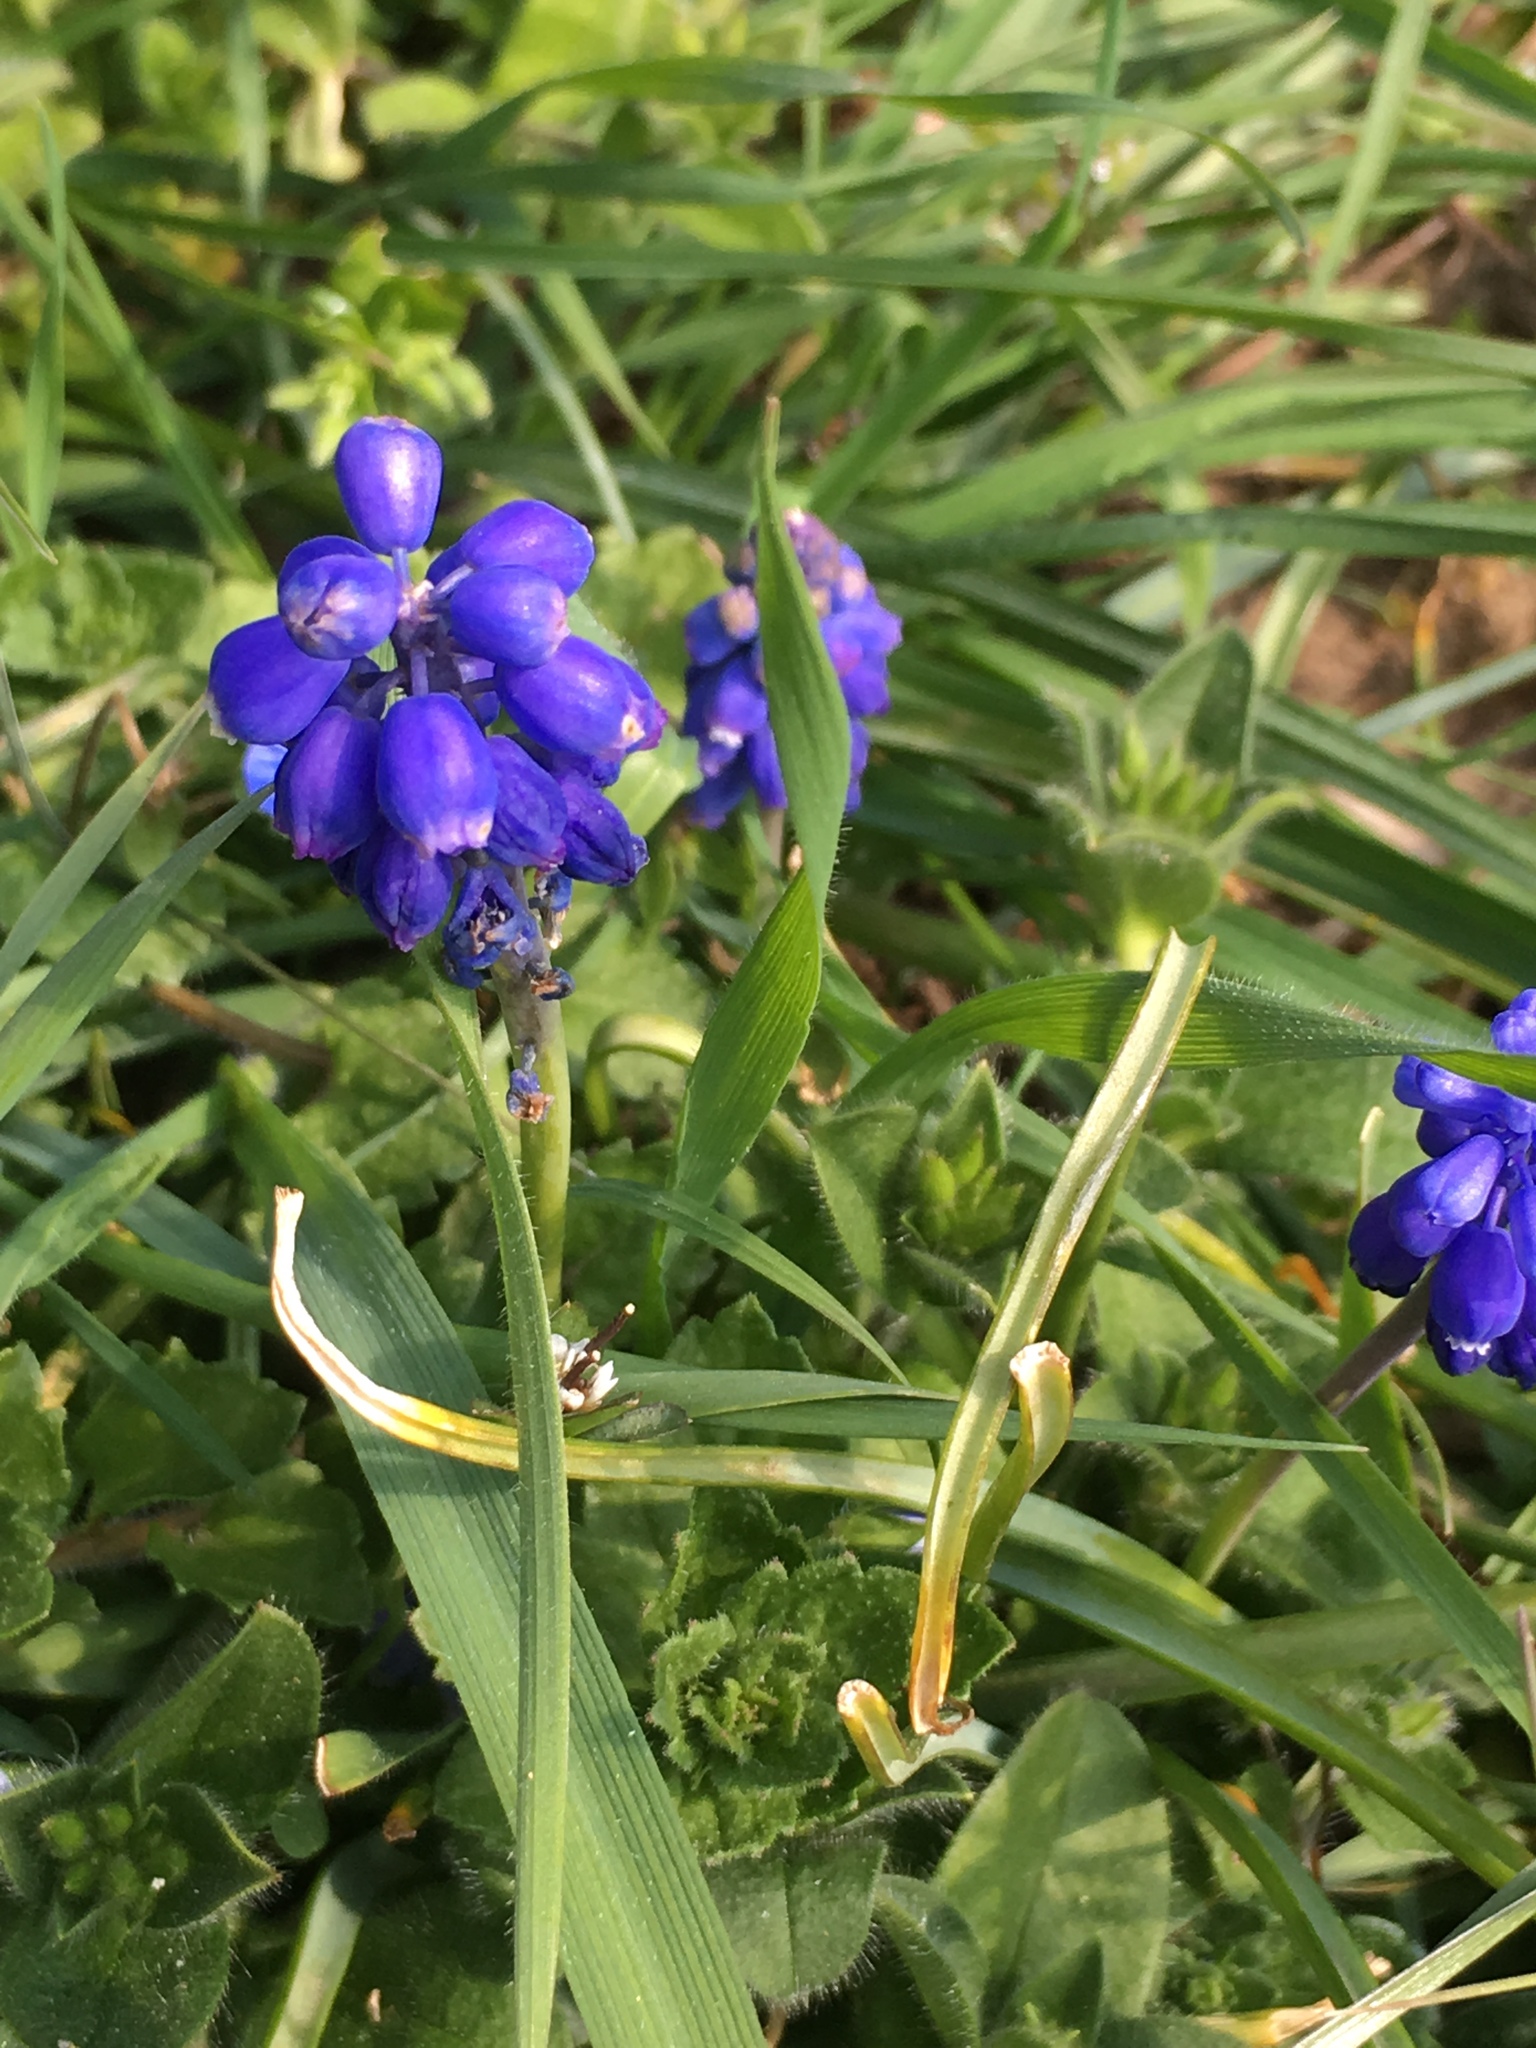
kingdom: Plantae
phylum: Tracheophyta
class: Liliopsida
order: Asparagales
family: Asparagaceae
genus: Muscari
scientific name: Muscari armeniacum
